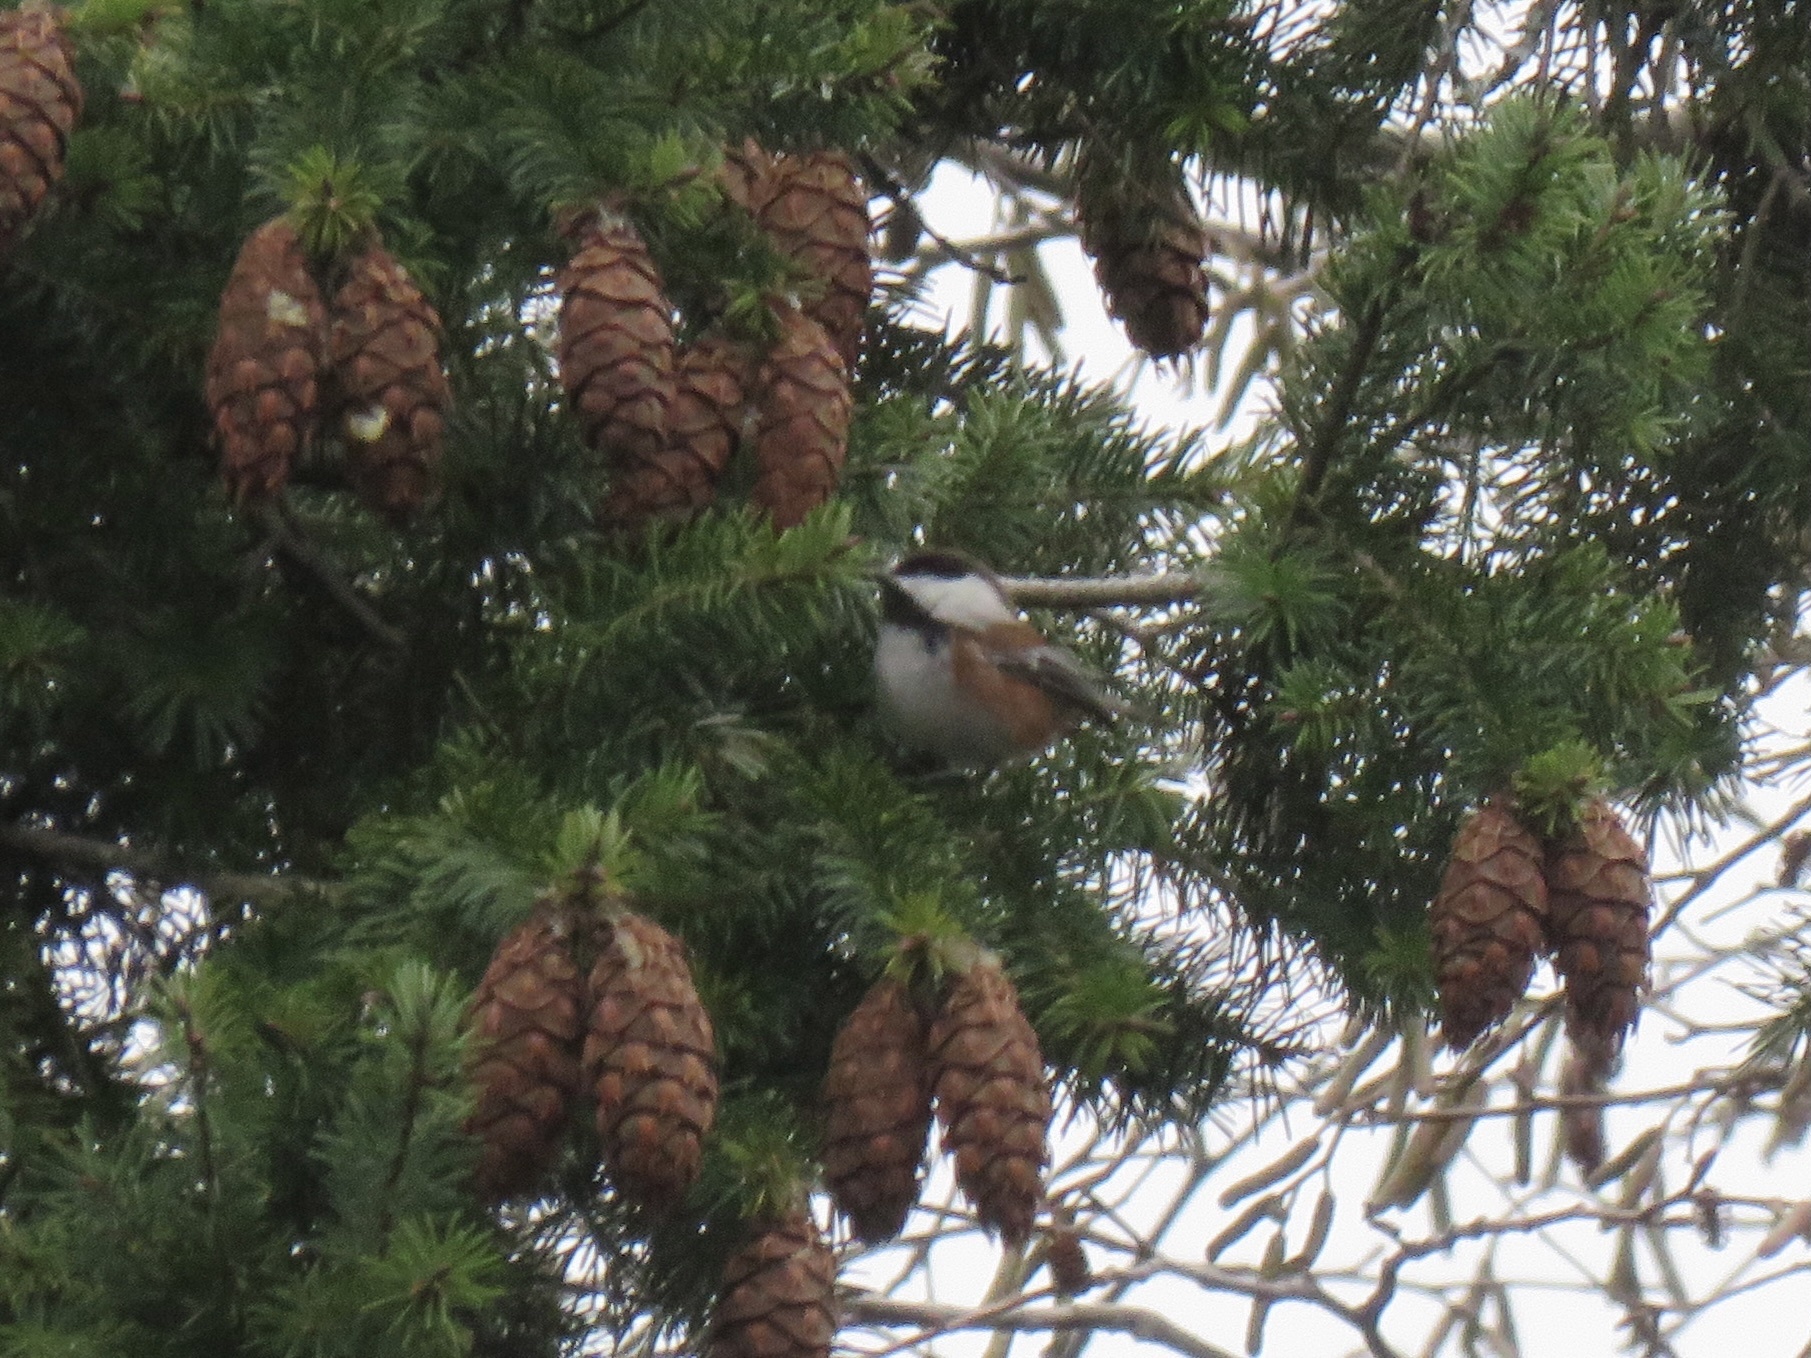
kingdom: Animalia
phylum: Chordata
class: Aves
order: Passeriformes
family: Paridae
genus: Poecile
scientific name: Poecile rufescens
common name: Chestnut-backed chickadee
